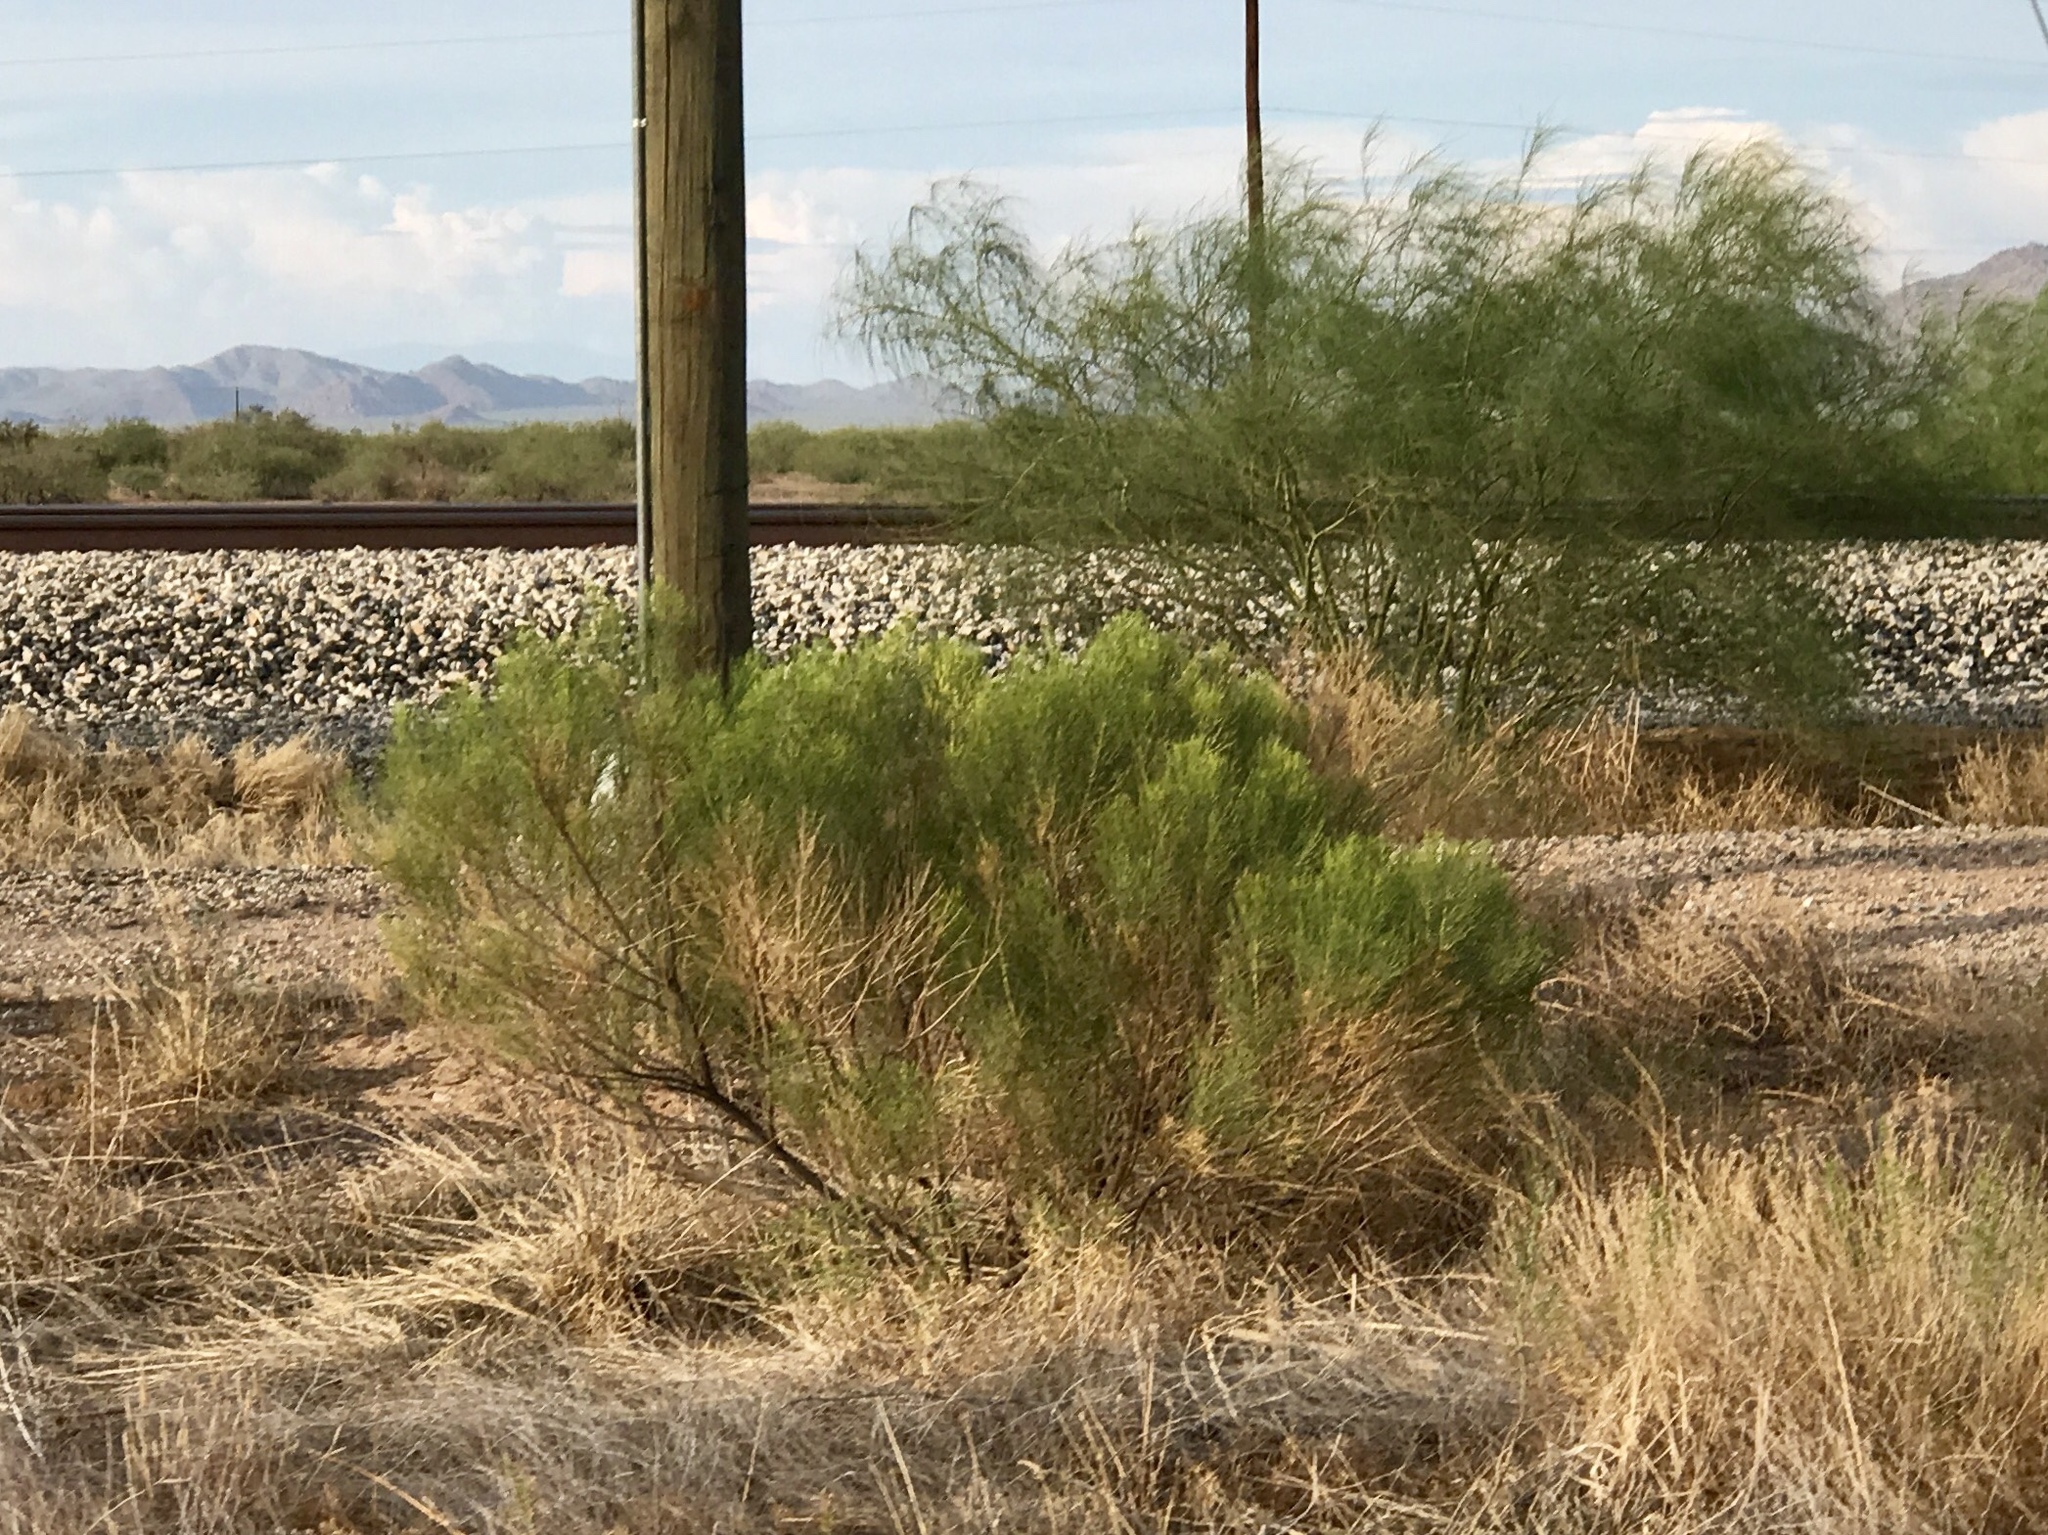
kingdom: Plantae
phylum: Tracheophyta
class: Magnoliopsida
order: Asterales
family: Asteraceae
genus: Baccharis
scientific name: Baccharis sarothroides
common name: Desert-broom
